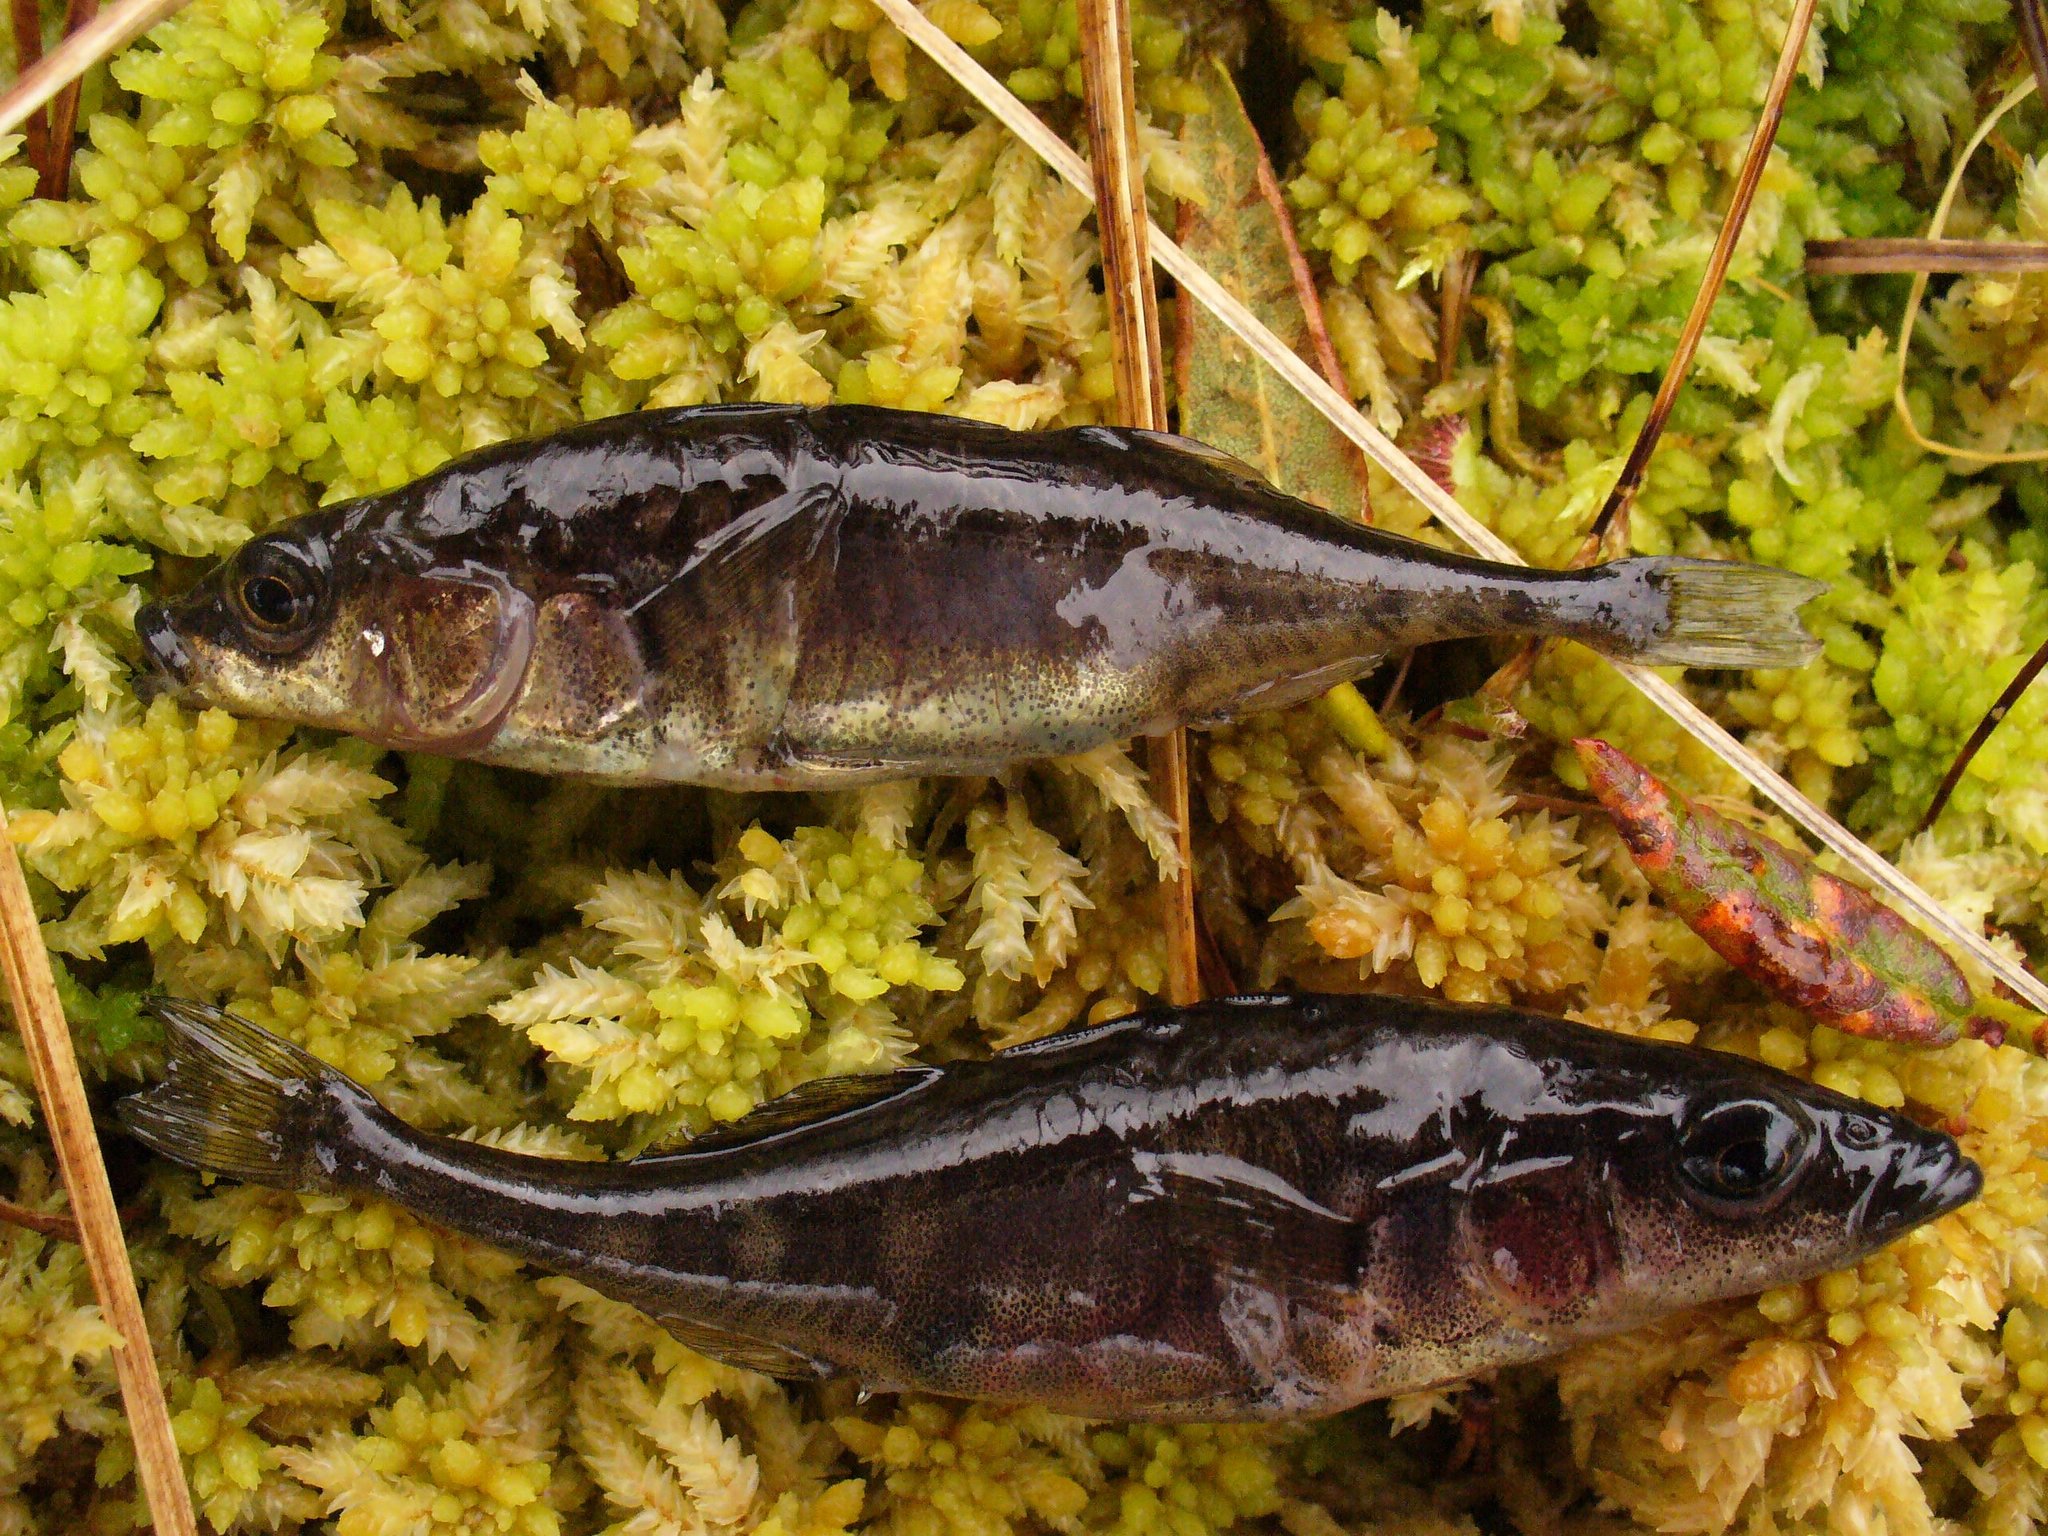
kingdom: Animalia
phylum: Chordata
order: Gasterosteiformes
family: Gasterosteidae
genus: Gasterosteus
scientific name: Gasterosteus aculeatus
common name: Three-spined stickleback
